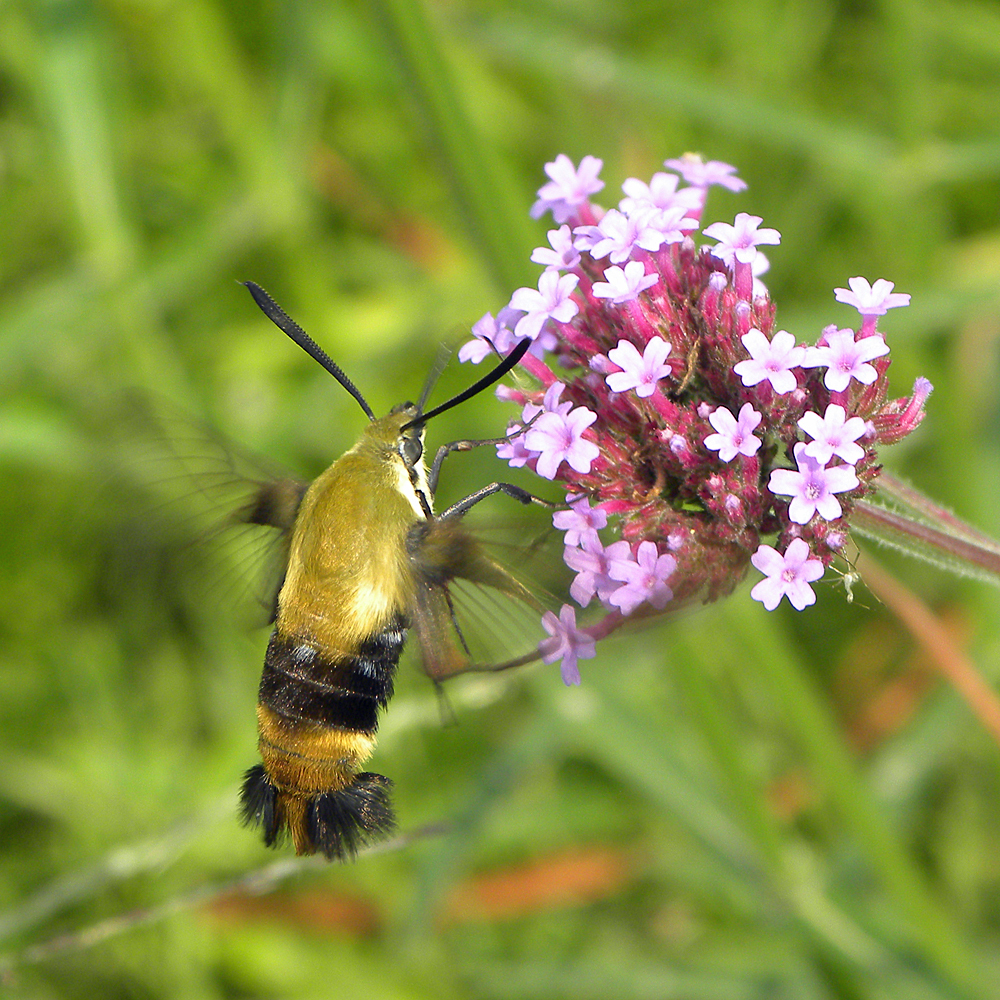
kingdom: Animalia
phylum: Arthropoda
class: Insecta
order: Lepidoptera
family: Sphingidae
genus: Hemaris
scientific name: Hemaris diffinis
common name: Bumblebee moth
